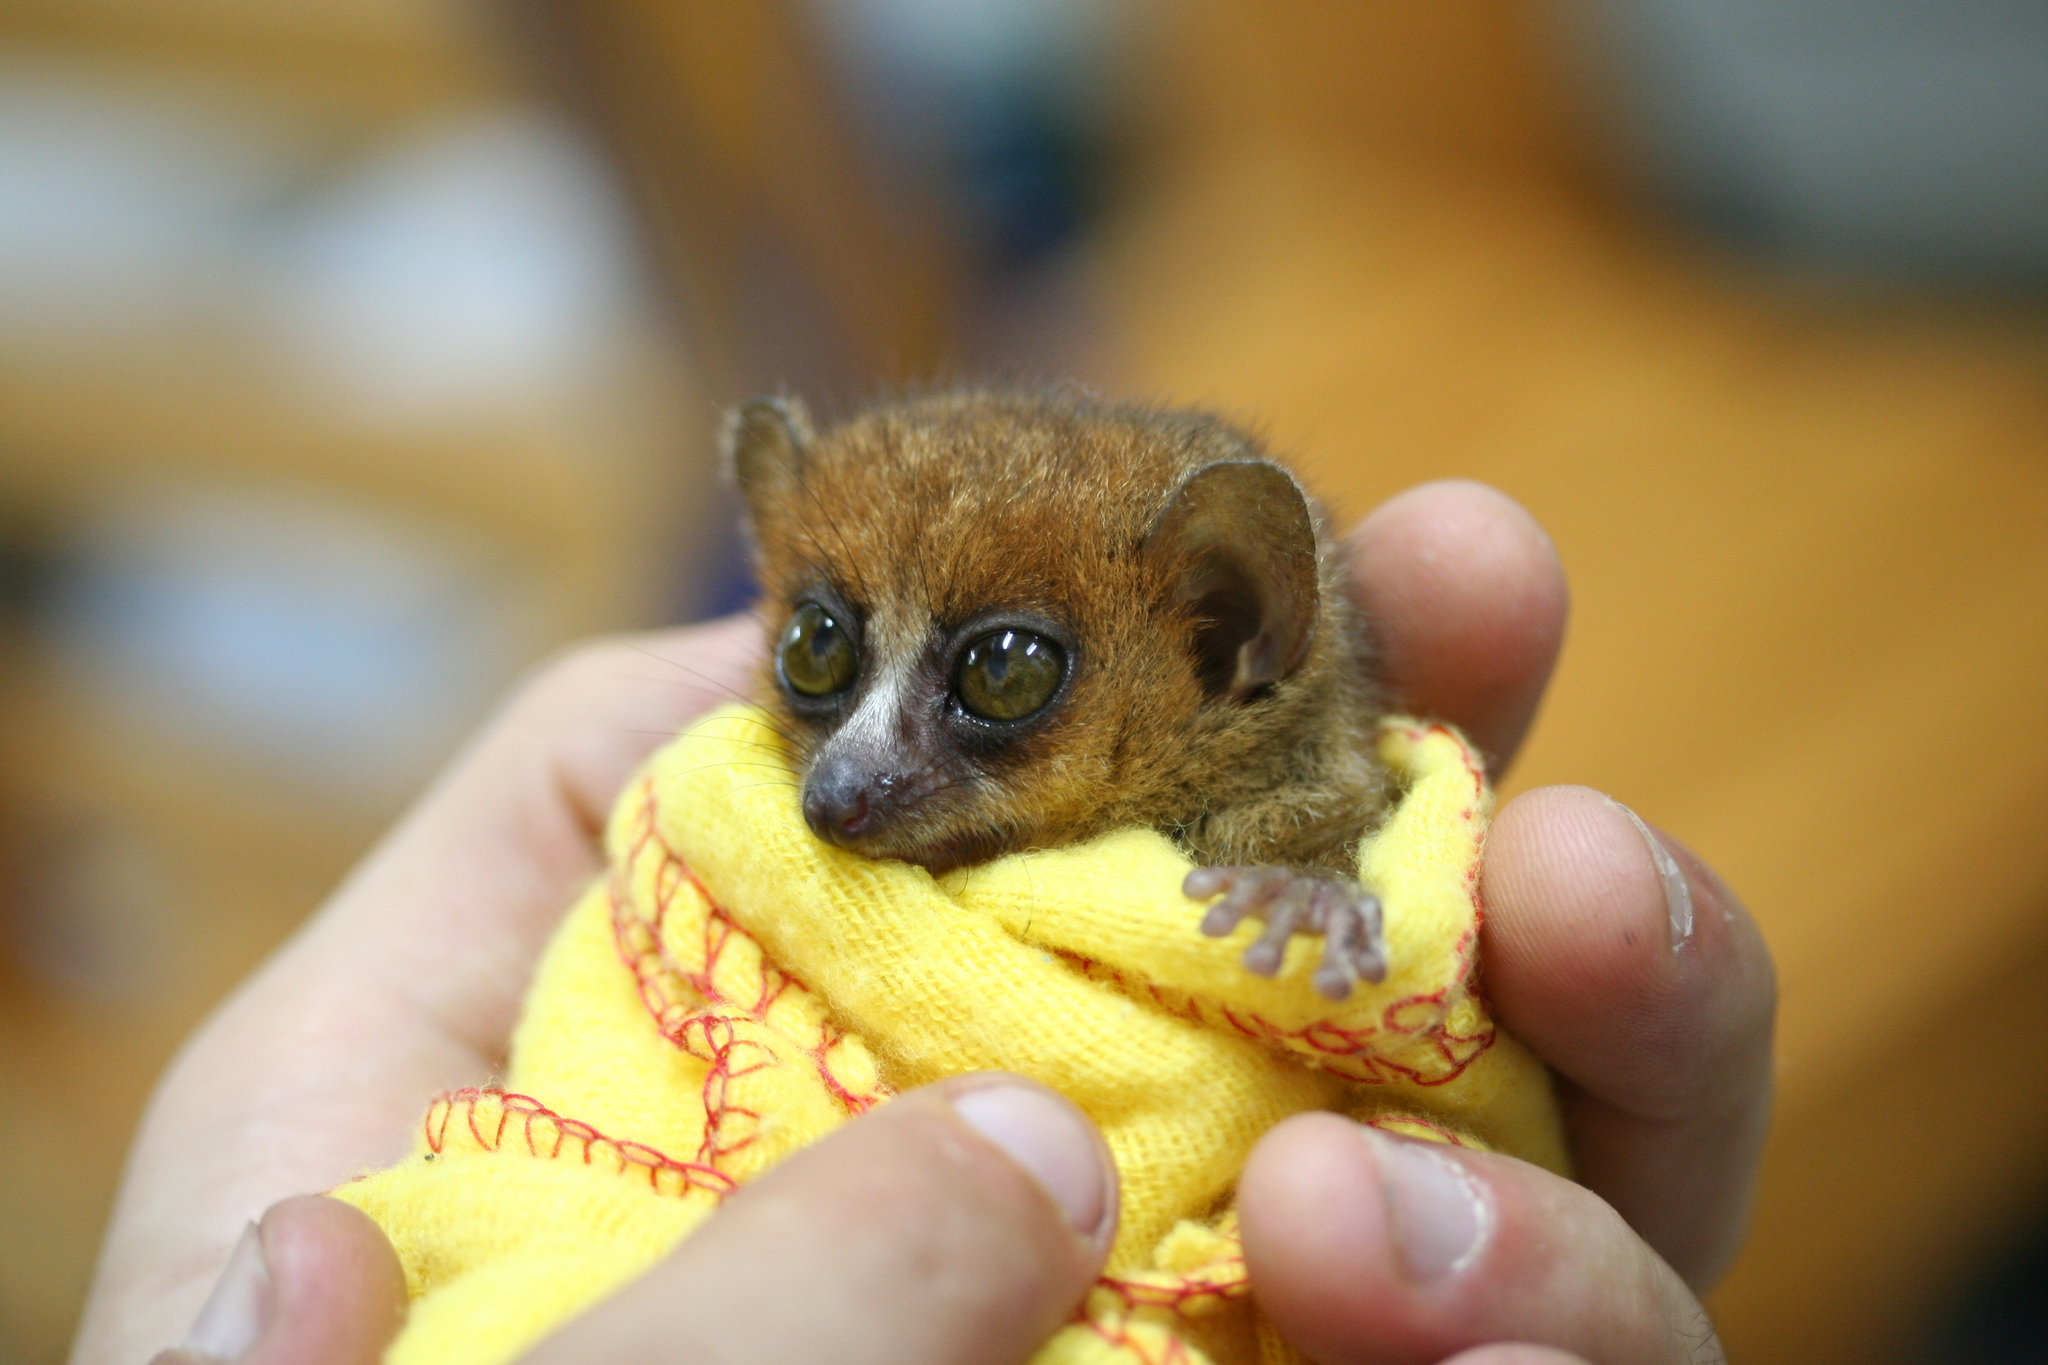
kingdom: Animalia
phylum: Chordata
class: Mammalia
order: Primates
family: Cheirogaleidae
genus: Microcebus
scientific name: Microcebus rufus
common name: Brown mouse lemur
